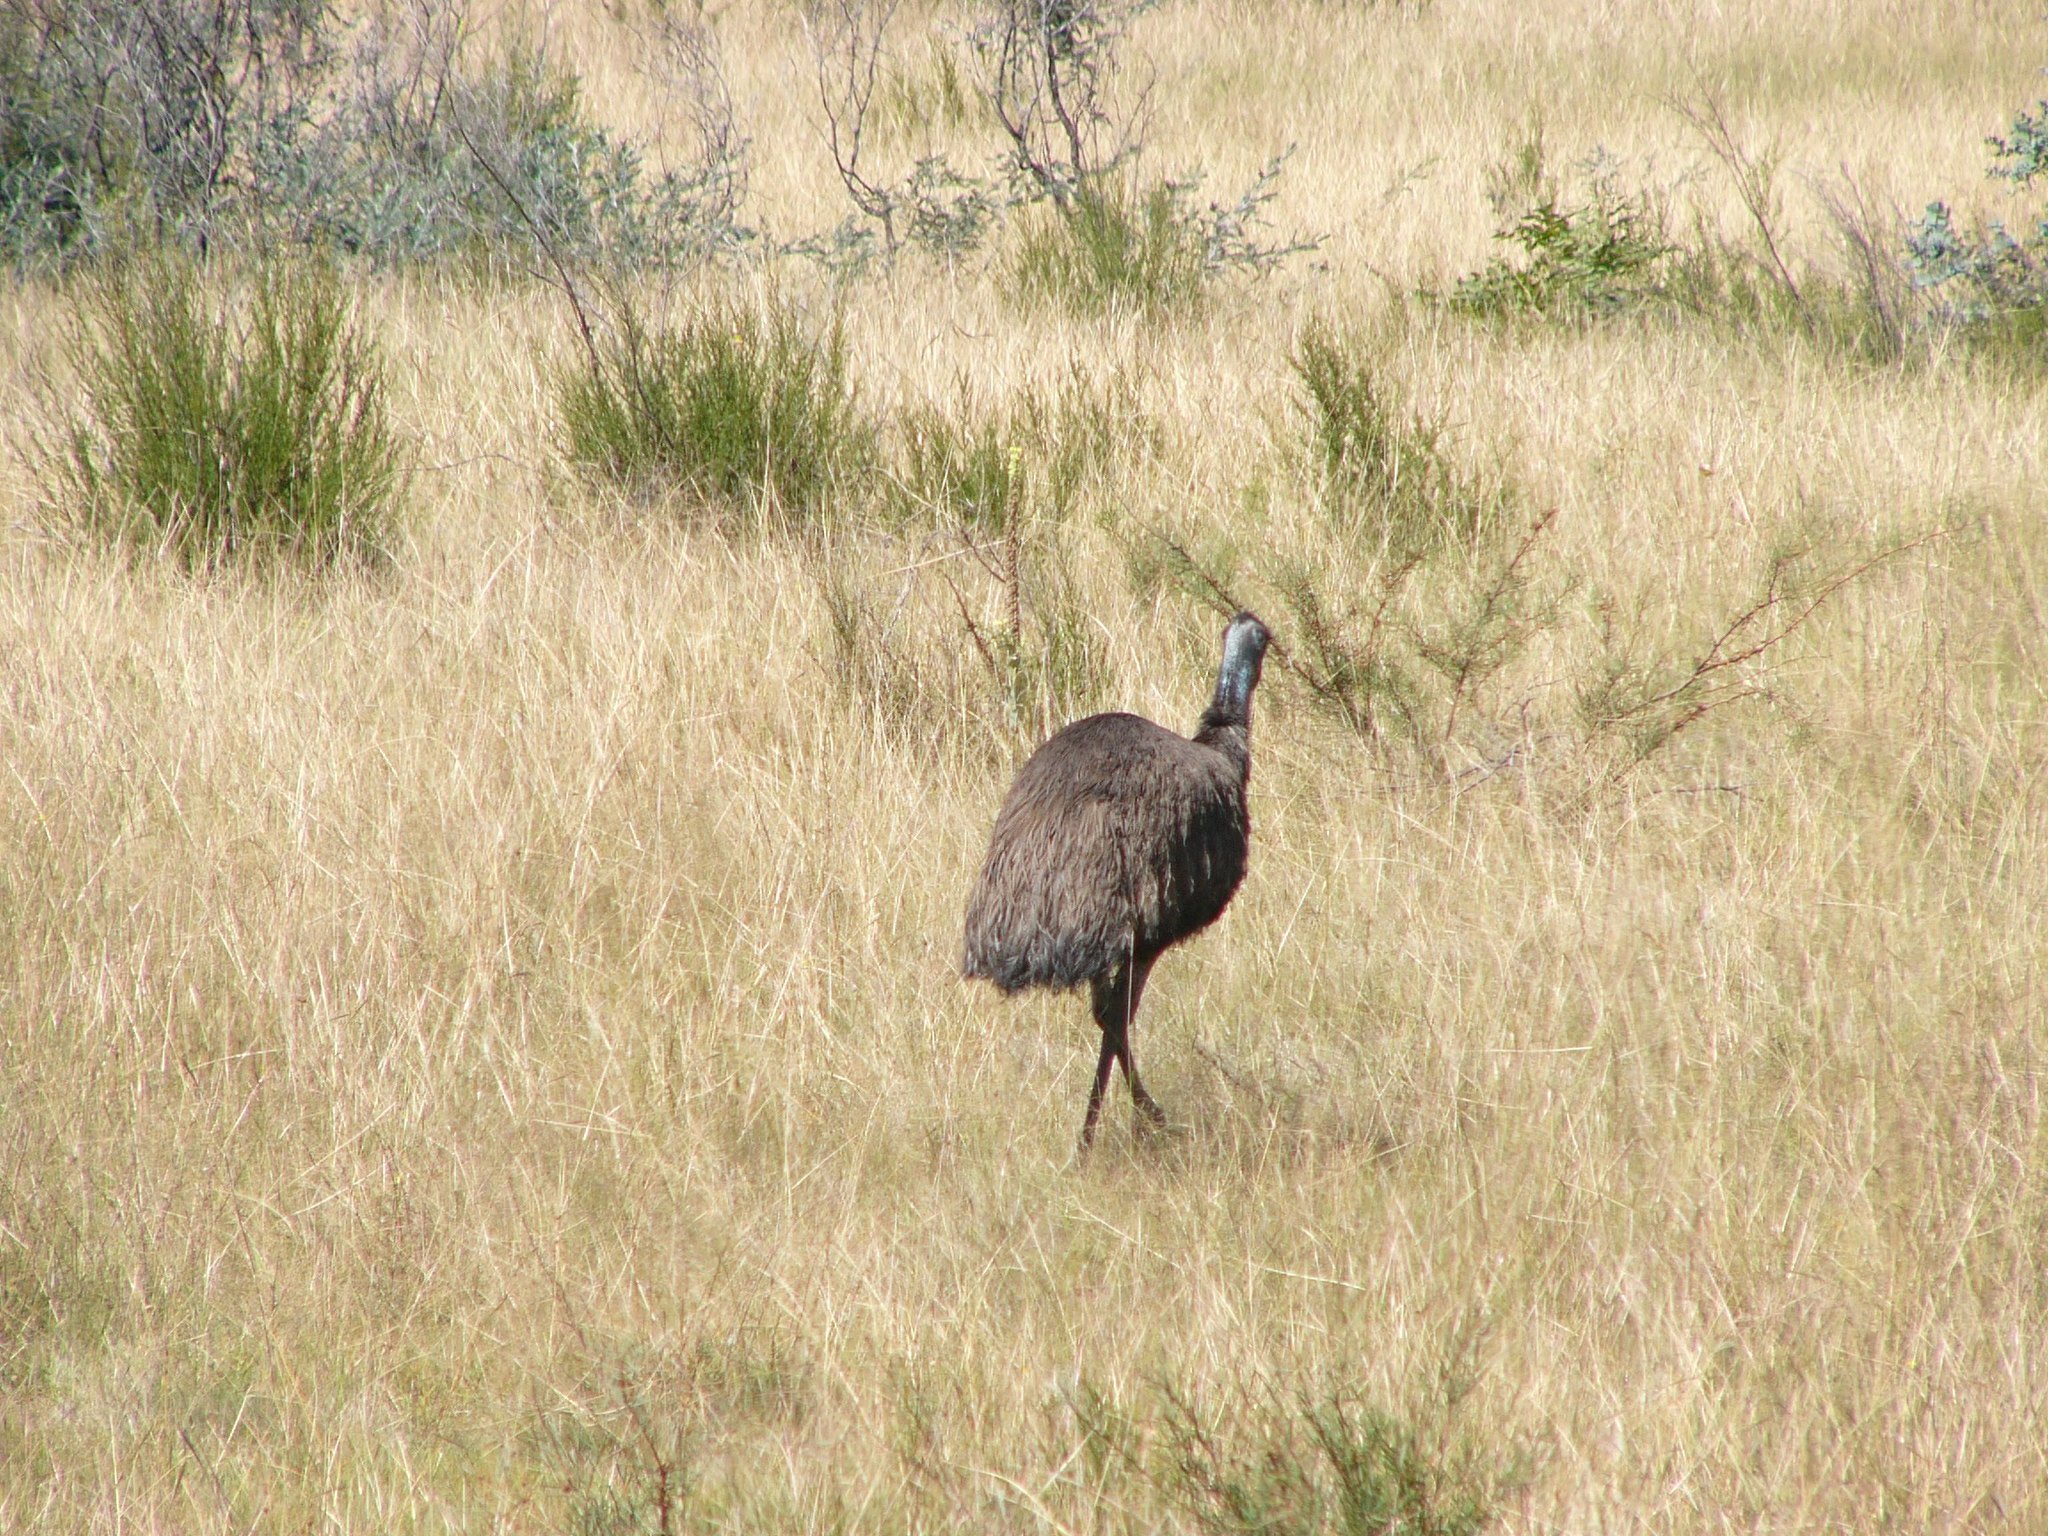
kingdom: Animalia
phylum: Chordata
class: Aves
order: Casuariiformes
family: Dromaiidae
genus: Dromaius
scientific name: Dromaius novaehollandiae
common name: Emu
